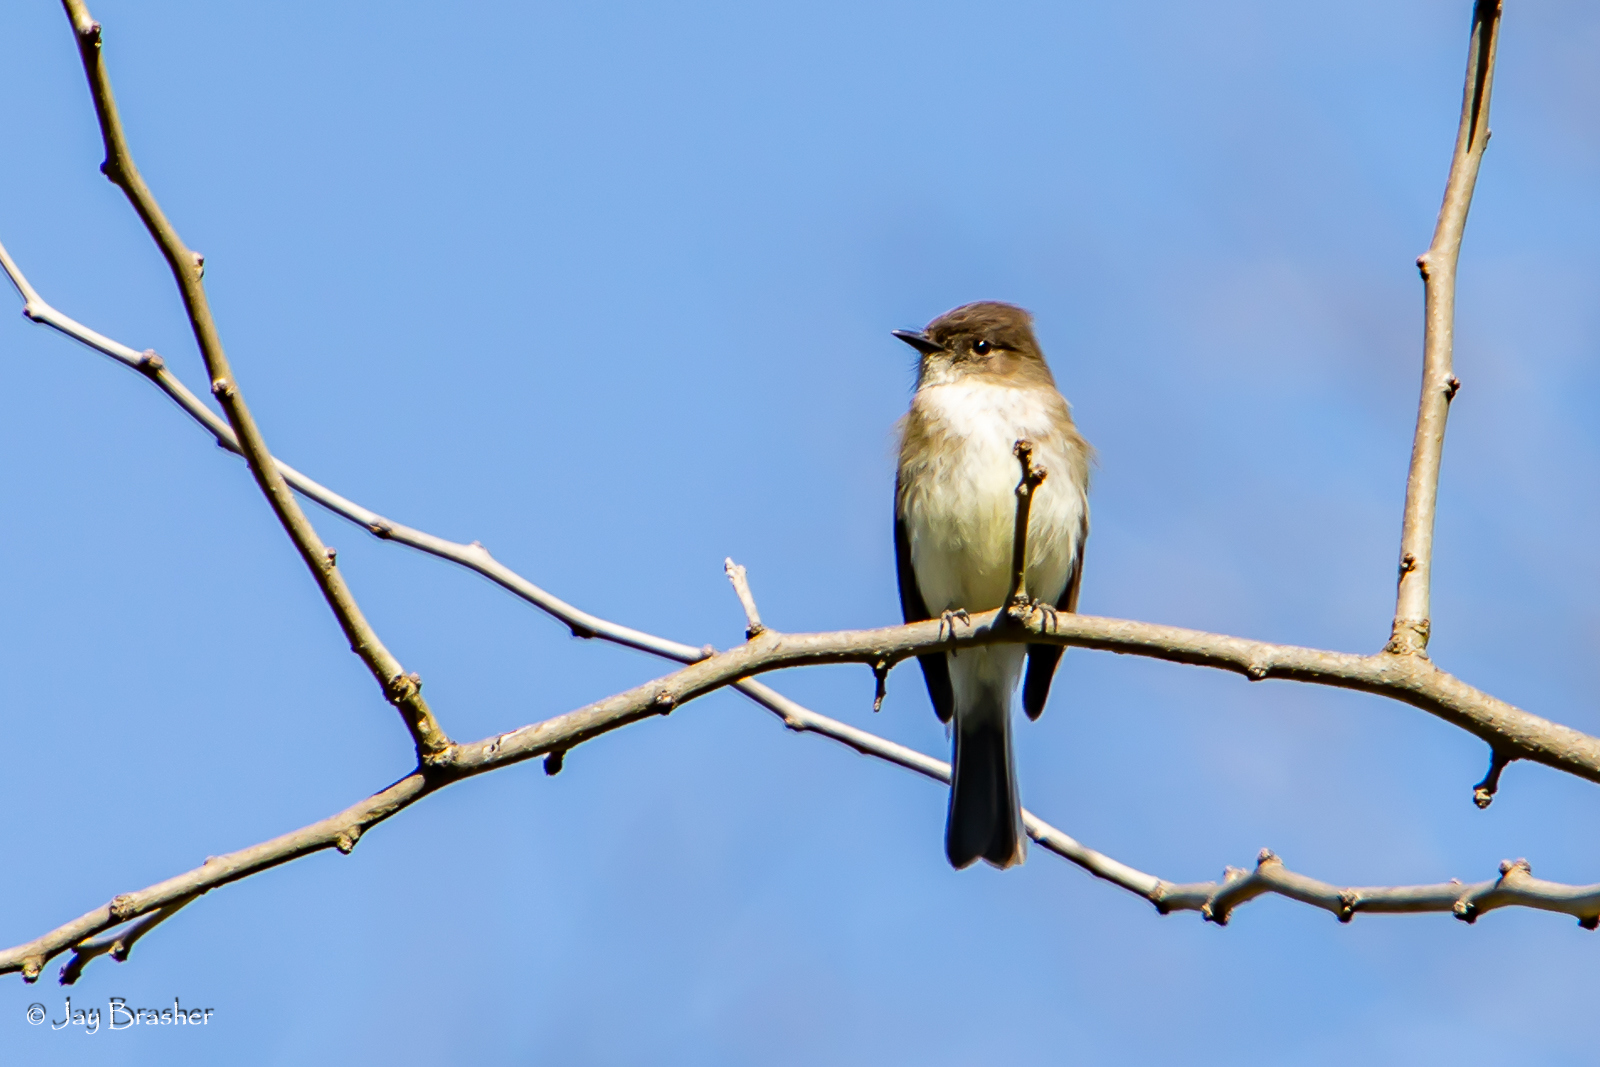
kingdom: Animalia
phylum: Chordata
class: Aves
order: Passeriformes
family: Tyrannidae
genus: Sayornis
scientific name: Sayornis phoebe
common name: Eastern phoebe
